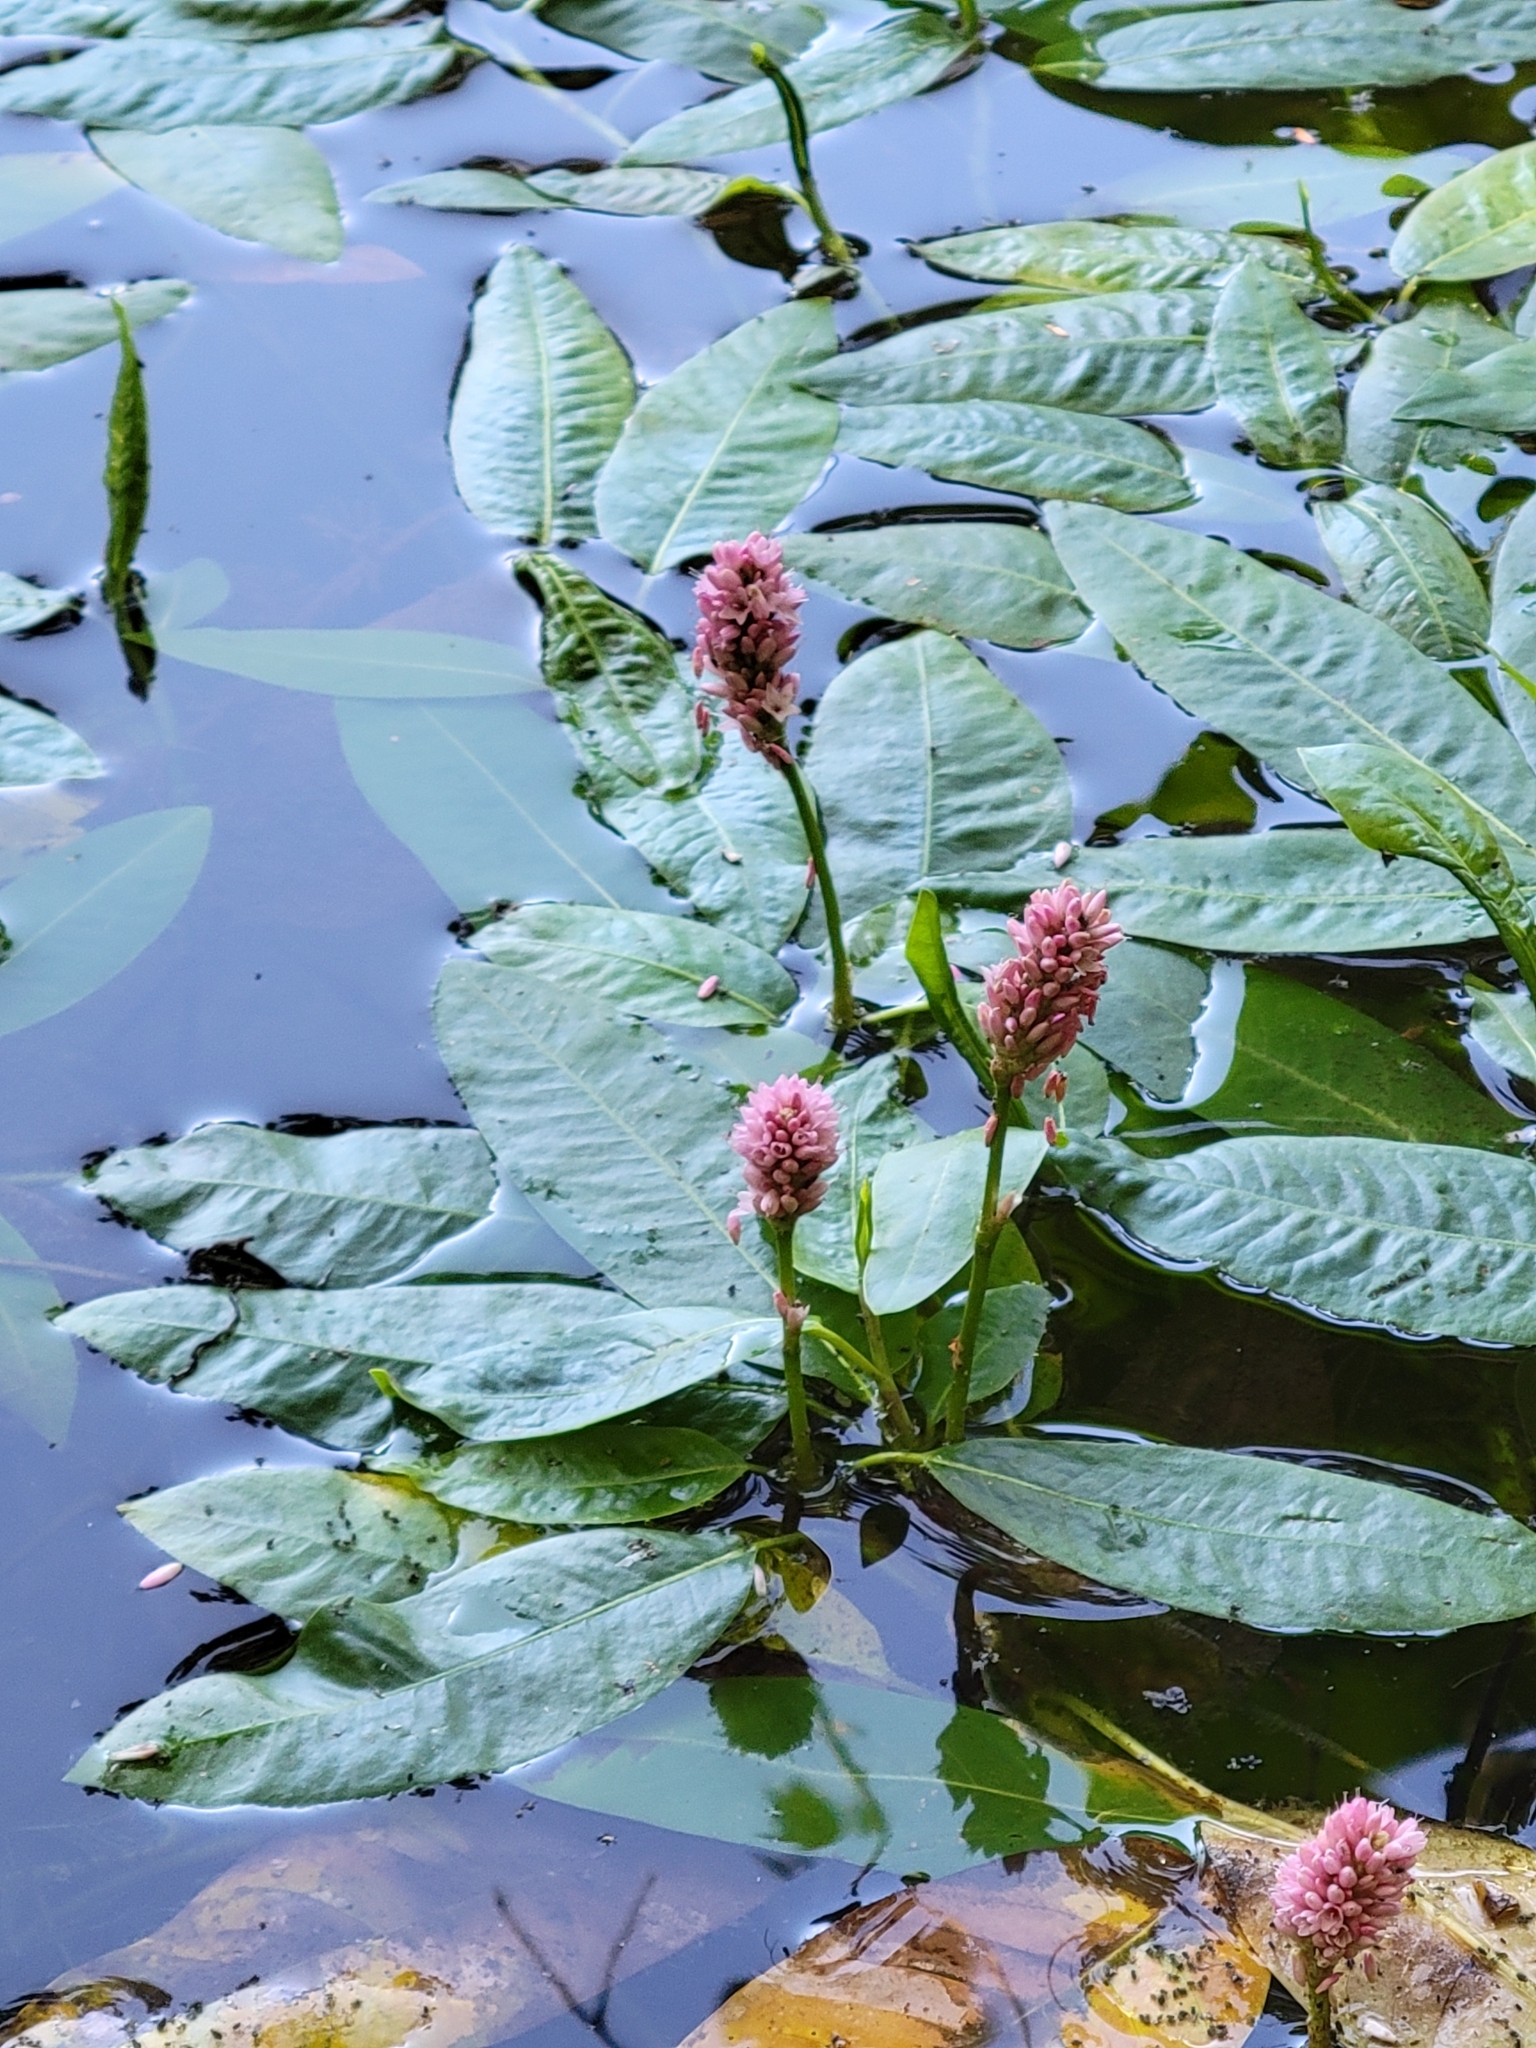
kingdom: Plantae
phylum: Tracheophyta
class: Magnoliopsida
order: Caryophyllales
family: Polygonaceae
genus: Persicaria
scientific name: Persicaria amphibia
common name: Amphibious bistort
